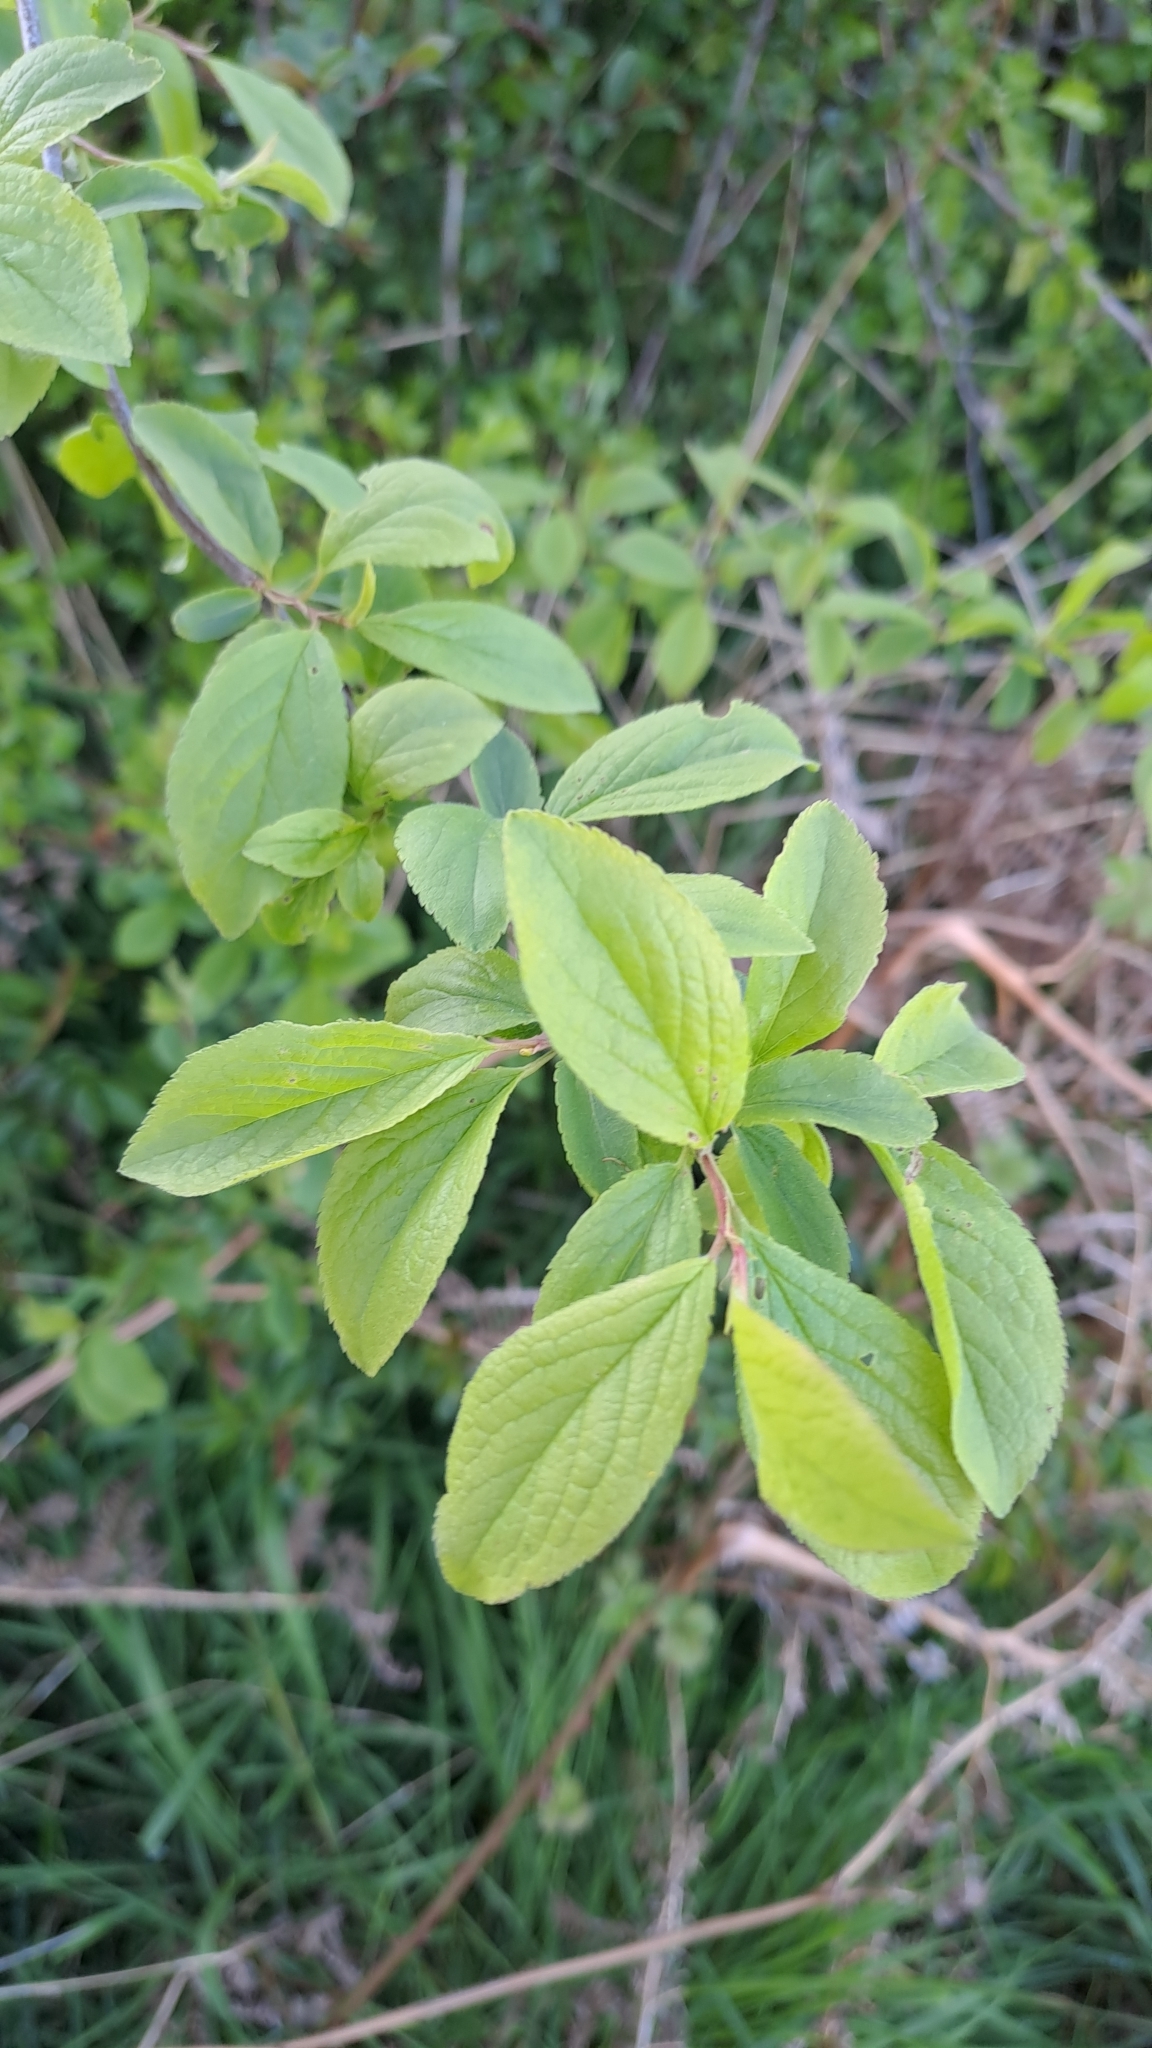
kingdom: Plantae
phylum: Tracheophyta
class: Magnoliopsida
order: Rosales
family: Rosaceae
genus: Prunus
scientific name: Prunus spinosa
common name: Blackthorn
